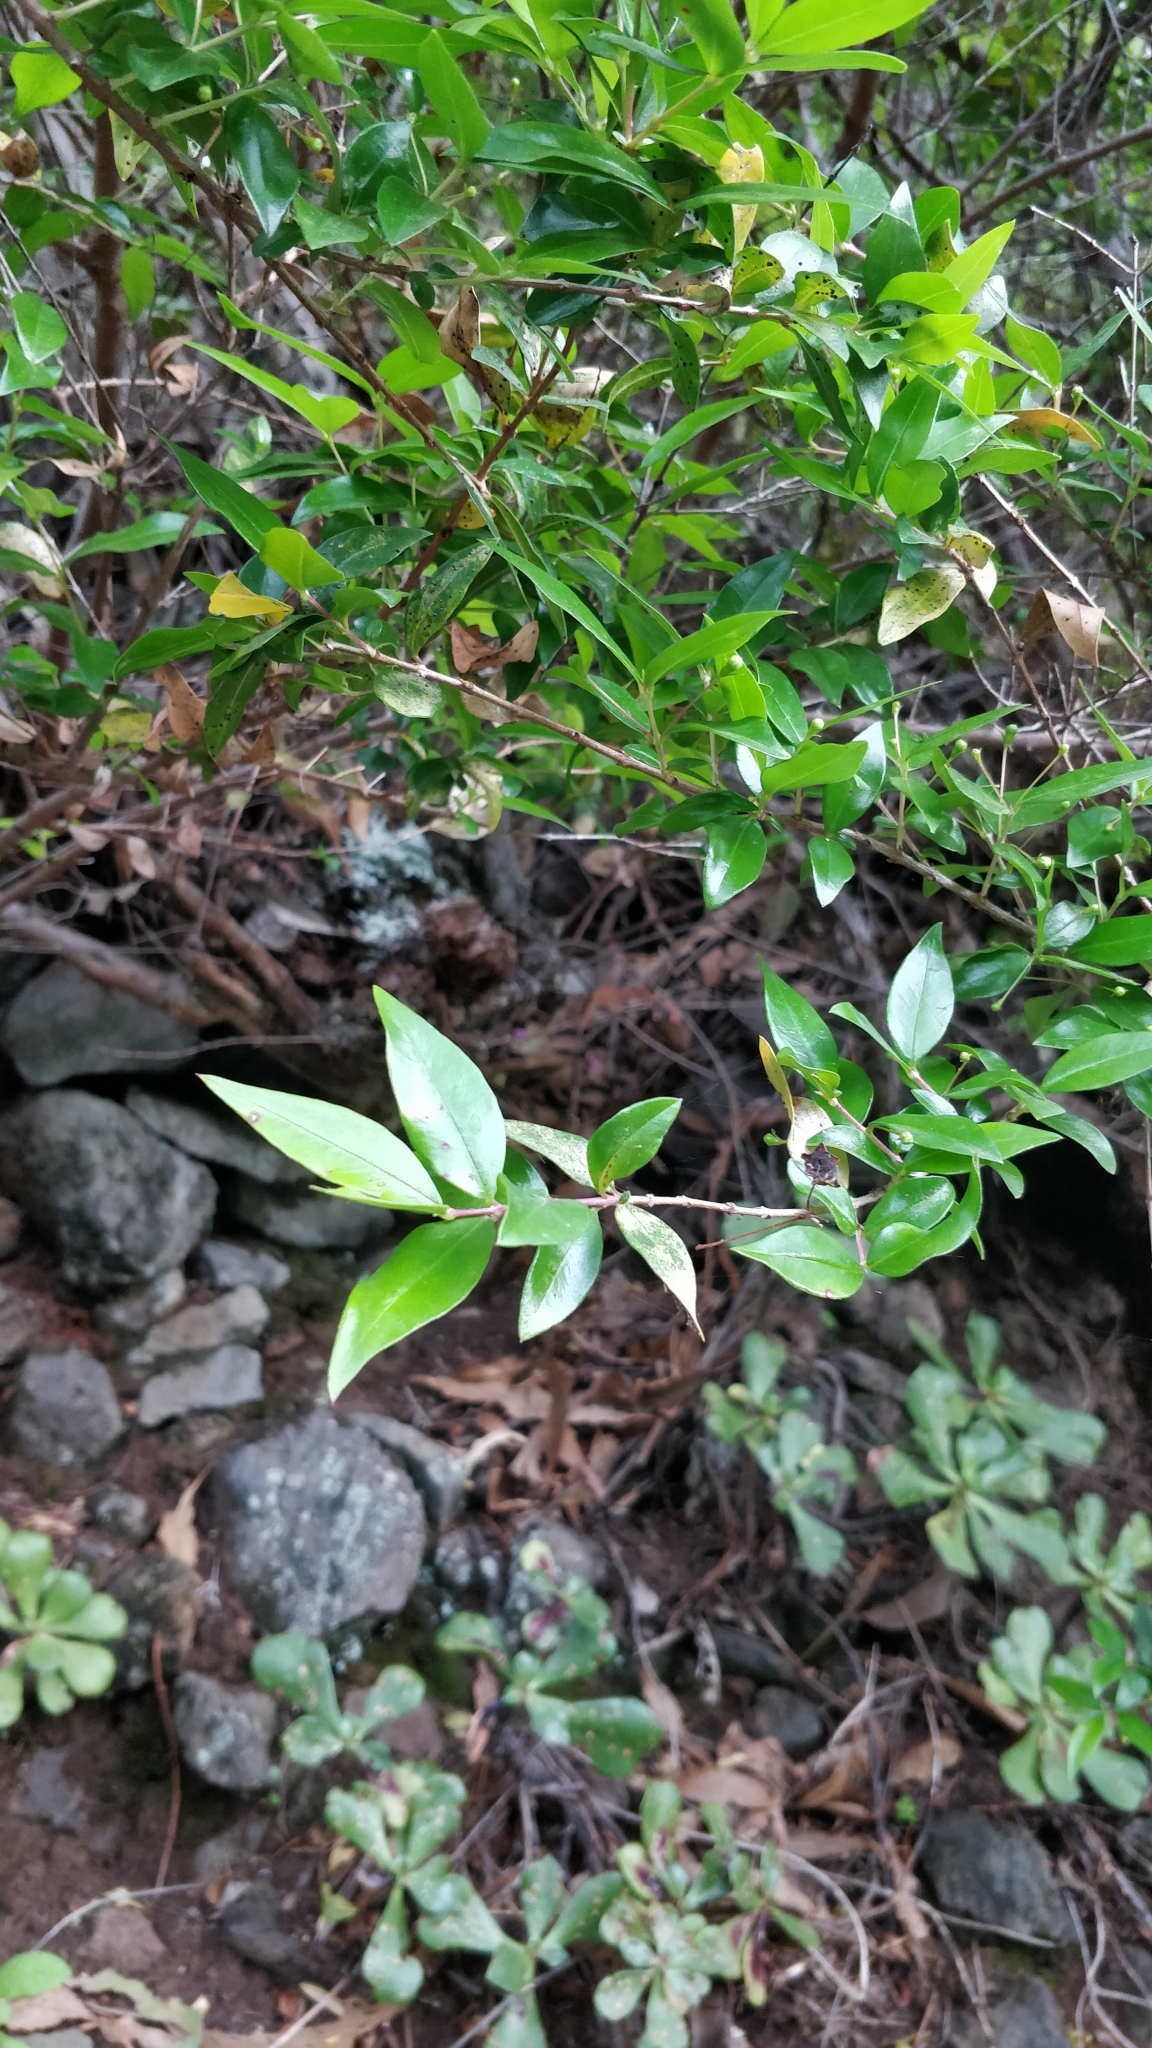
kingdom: Plantae
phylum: Tracheophyta
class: Magnoliopsida
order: Myrtales
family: Myrtaceae
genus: Myrtus
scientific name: Myrtus communis
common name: Myrtle
